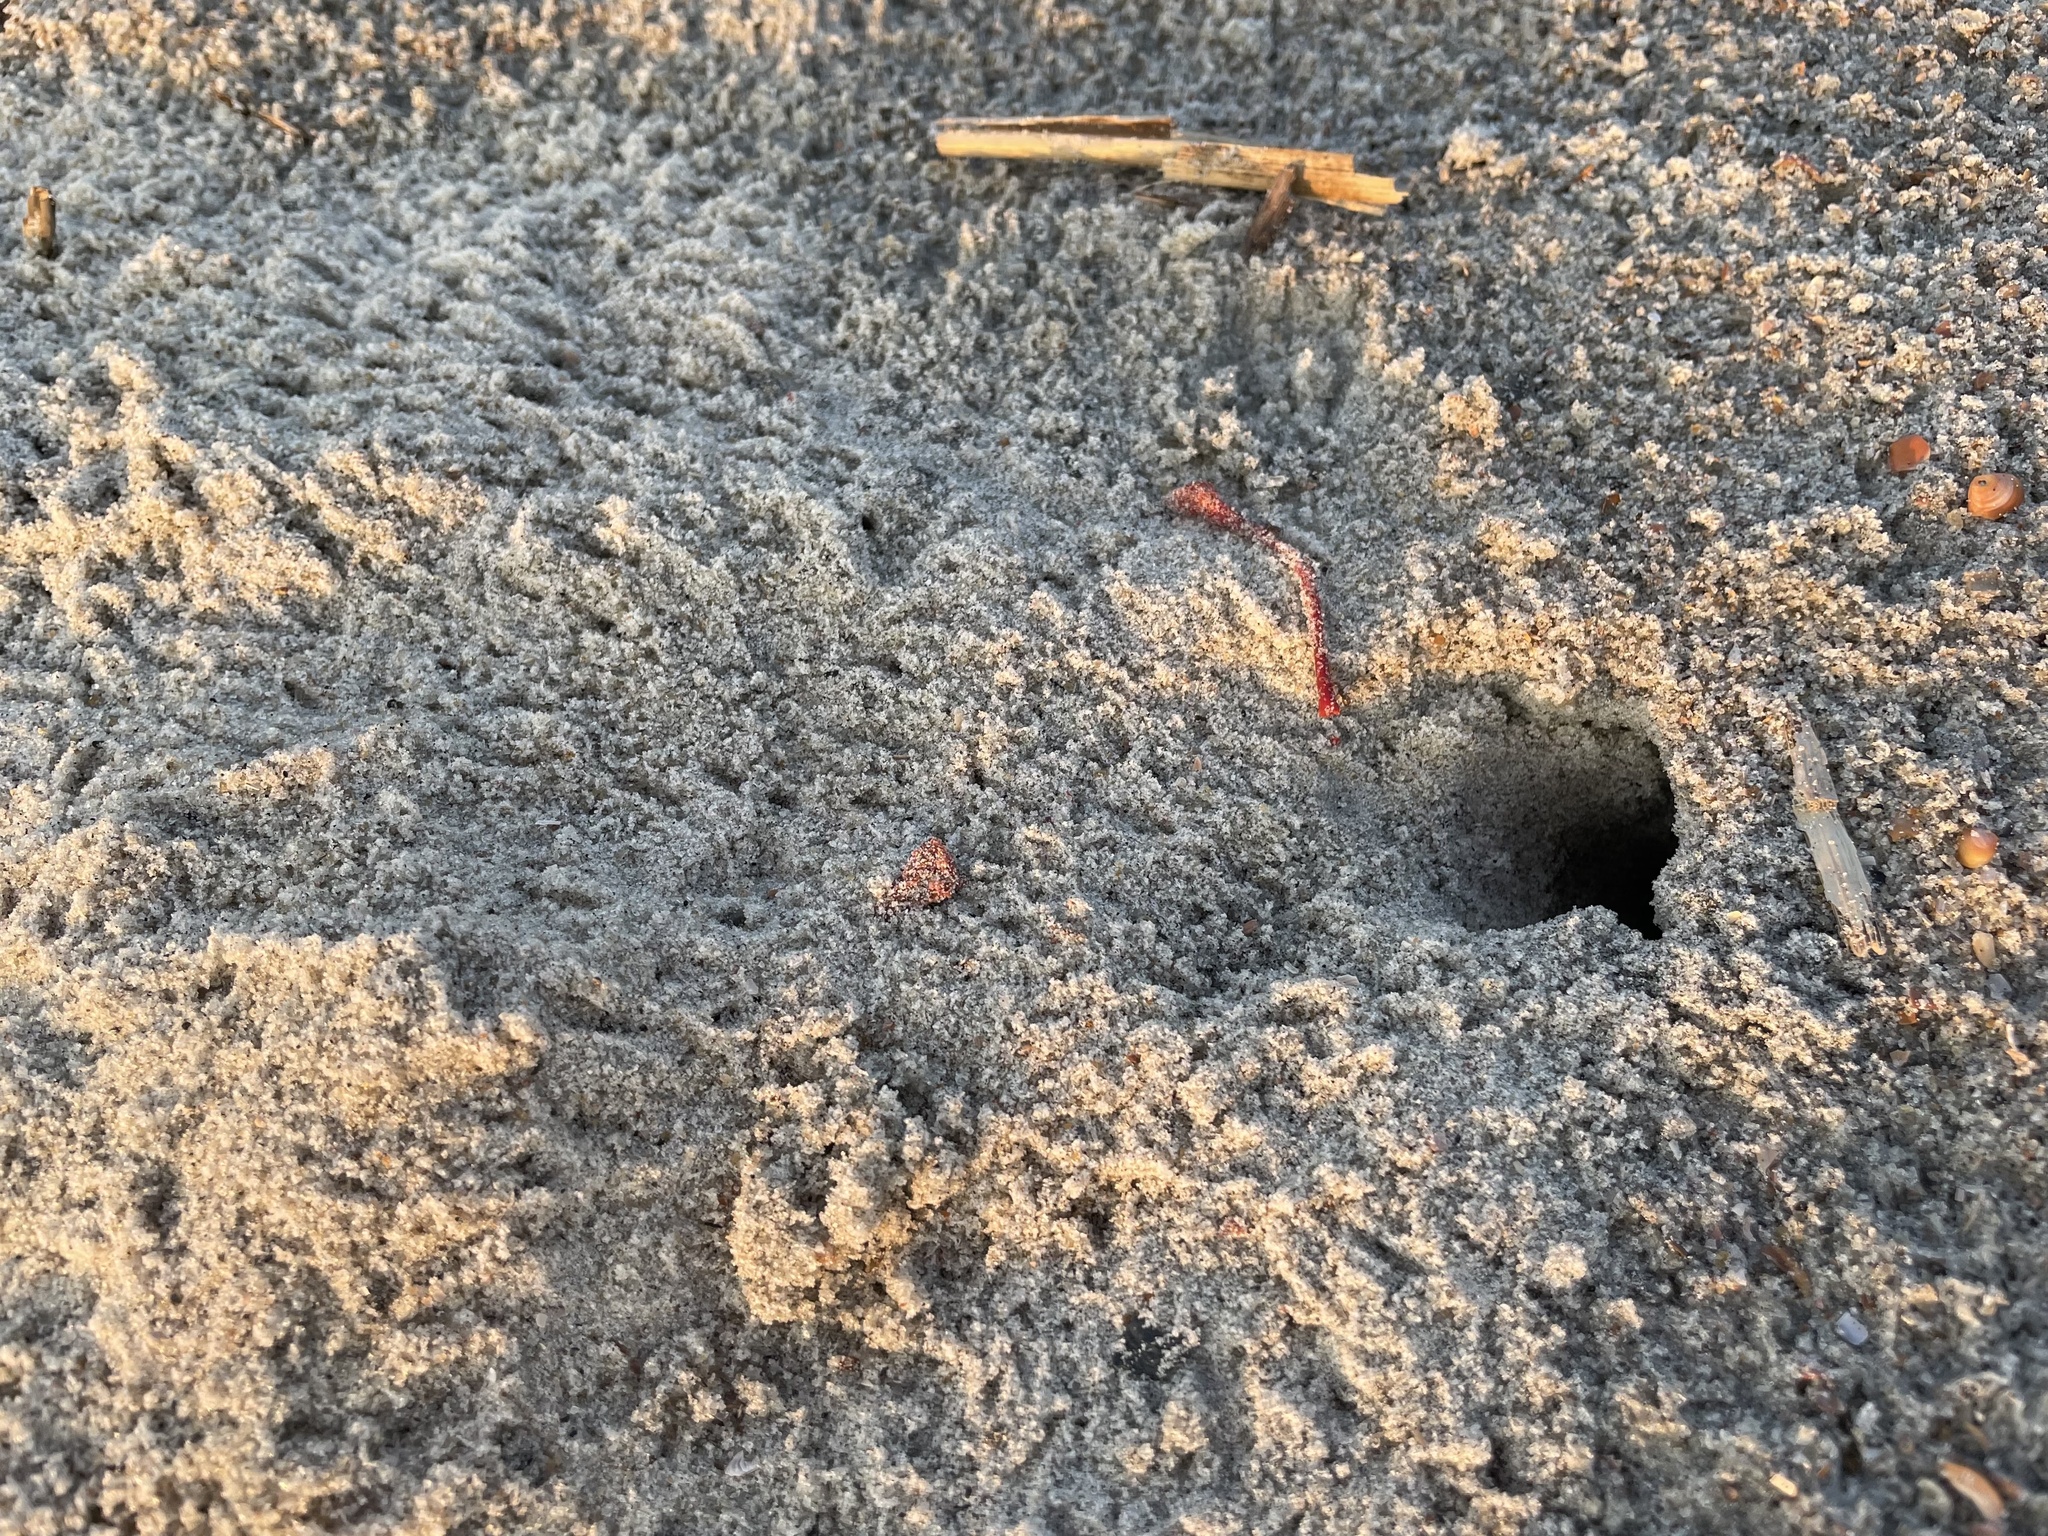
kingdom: Animalia
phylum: Arthropoda
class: Malacostraca
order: Decapoda
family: Ocypodidae
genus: Ocypode
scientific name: Ocypode quadrata
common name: Ghost crab
